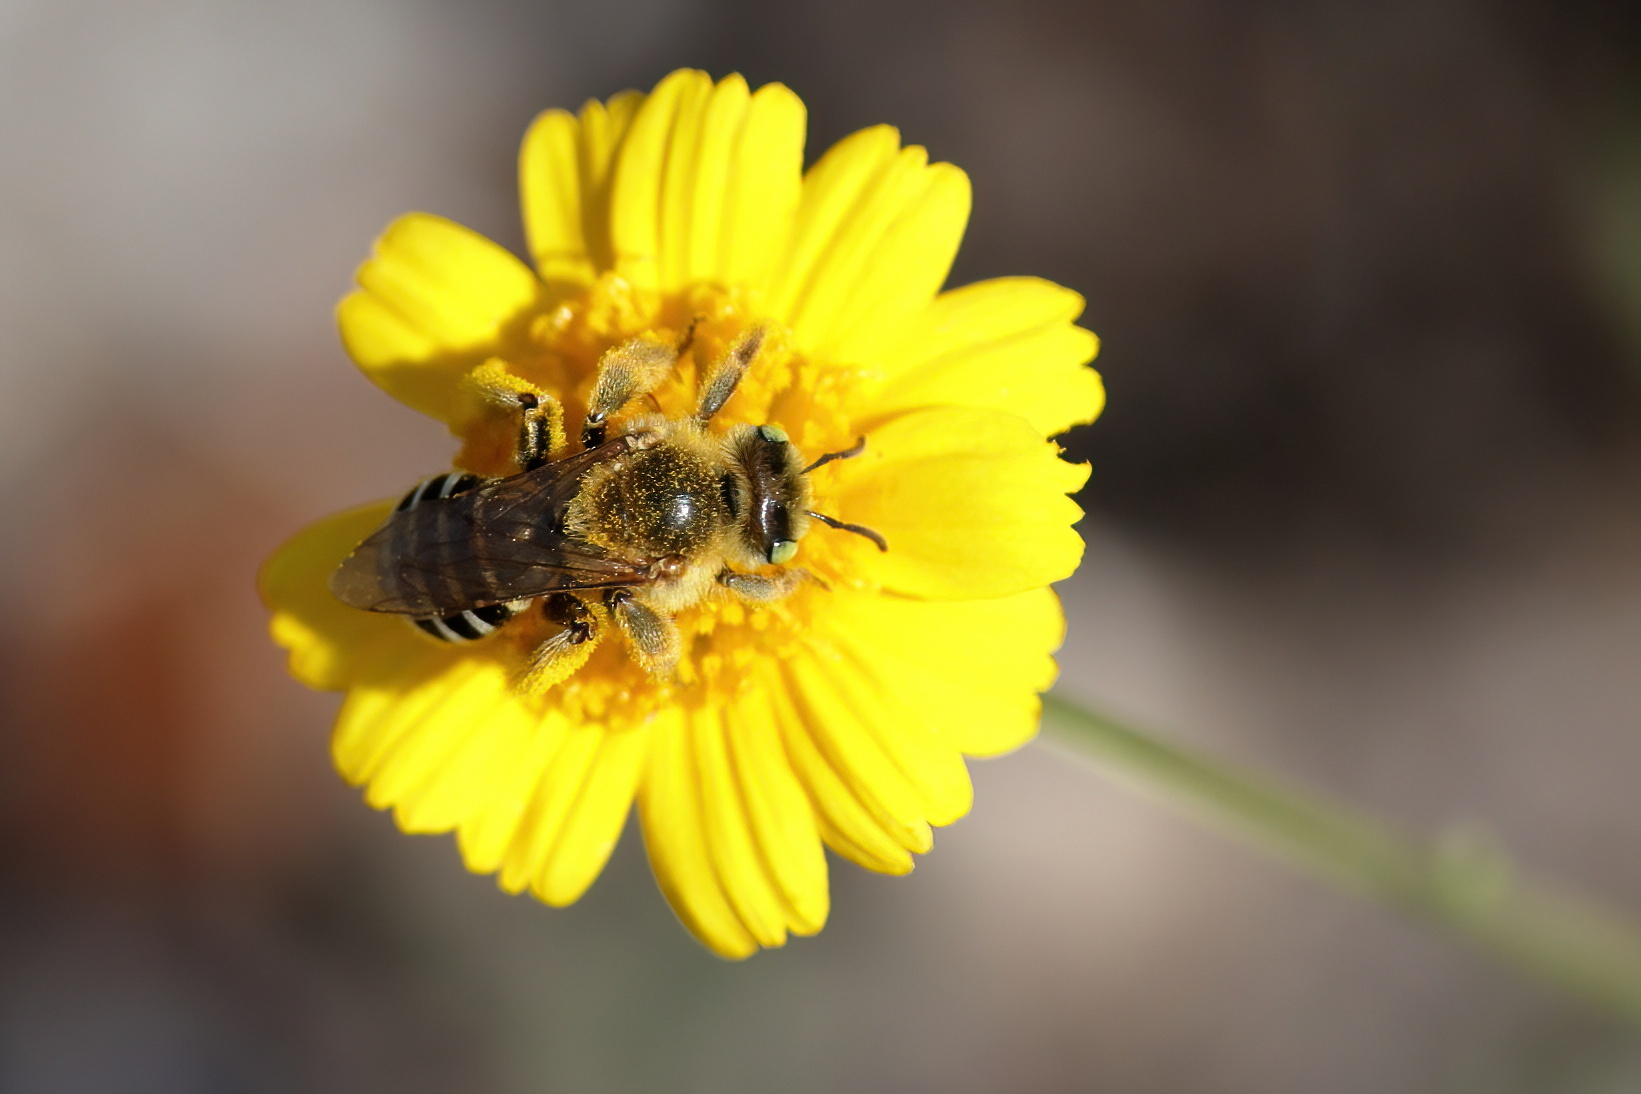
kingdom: Animalia
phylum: Arthropoda
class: Insecta
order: Hymenoptera
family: Melittidae
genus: Hesperapis
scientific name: Hesperapis oraria
